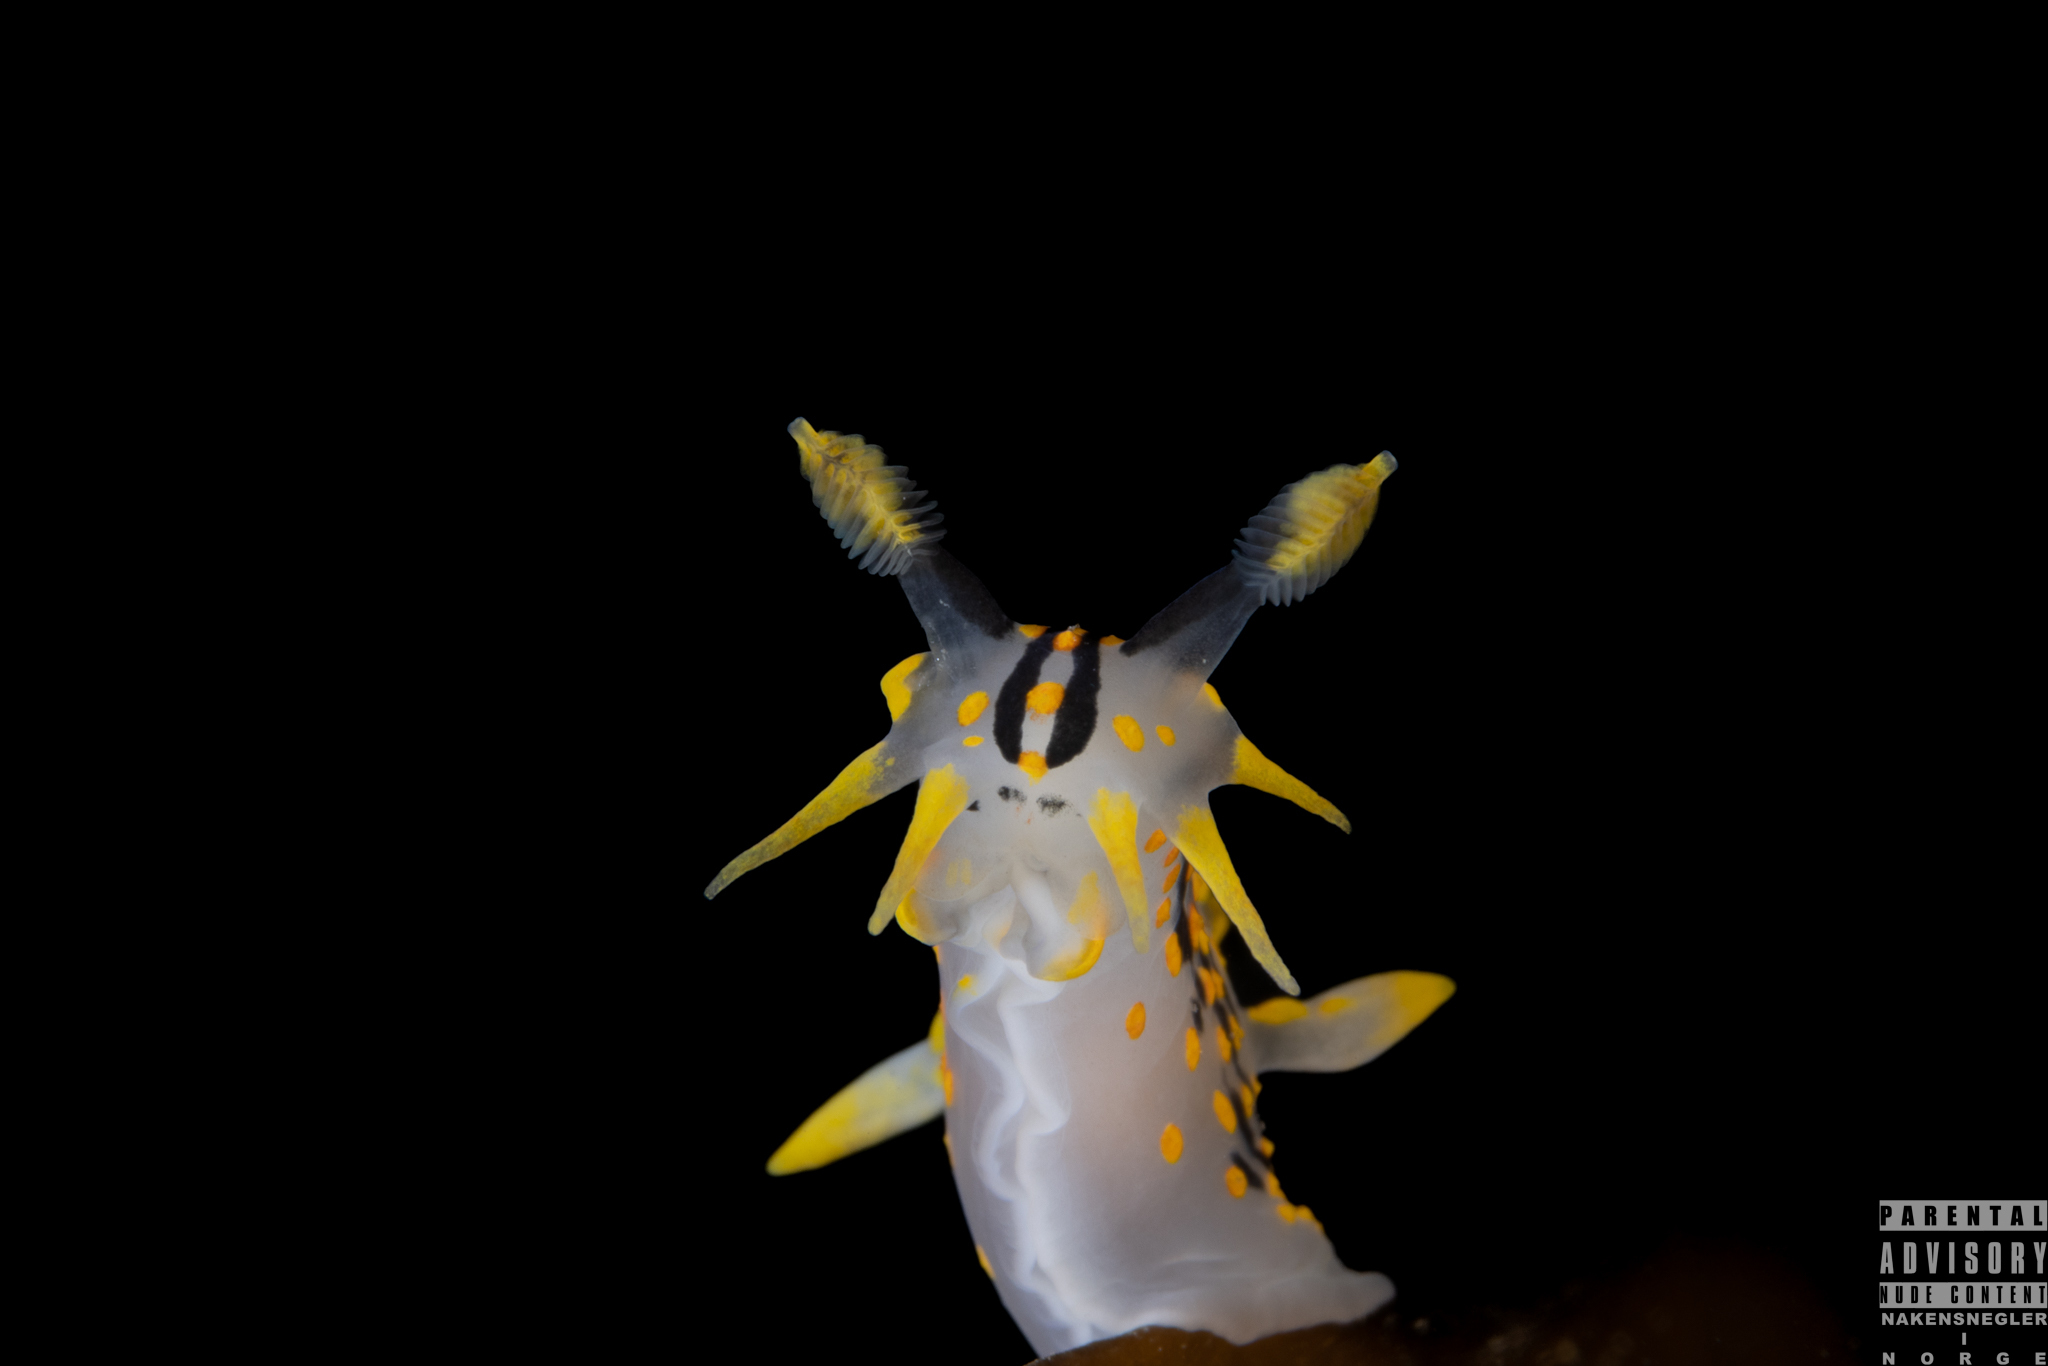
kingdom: Animalia
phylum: Mollusca
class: Gastropoda
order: Nudibranchia
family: Polyceridae
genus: Polycera
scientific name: Polycera quadrilineata
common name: Four-striped polycera
